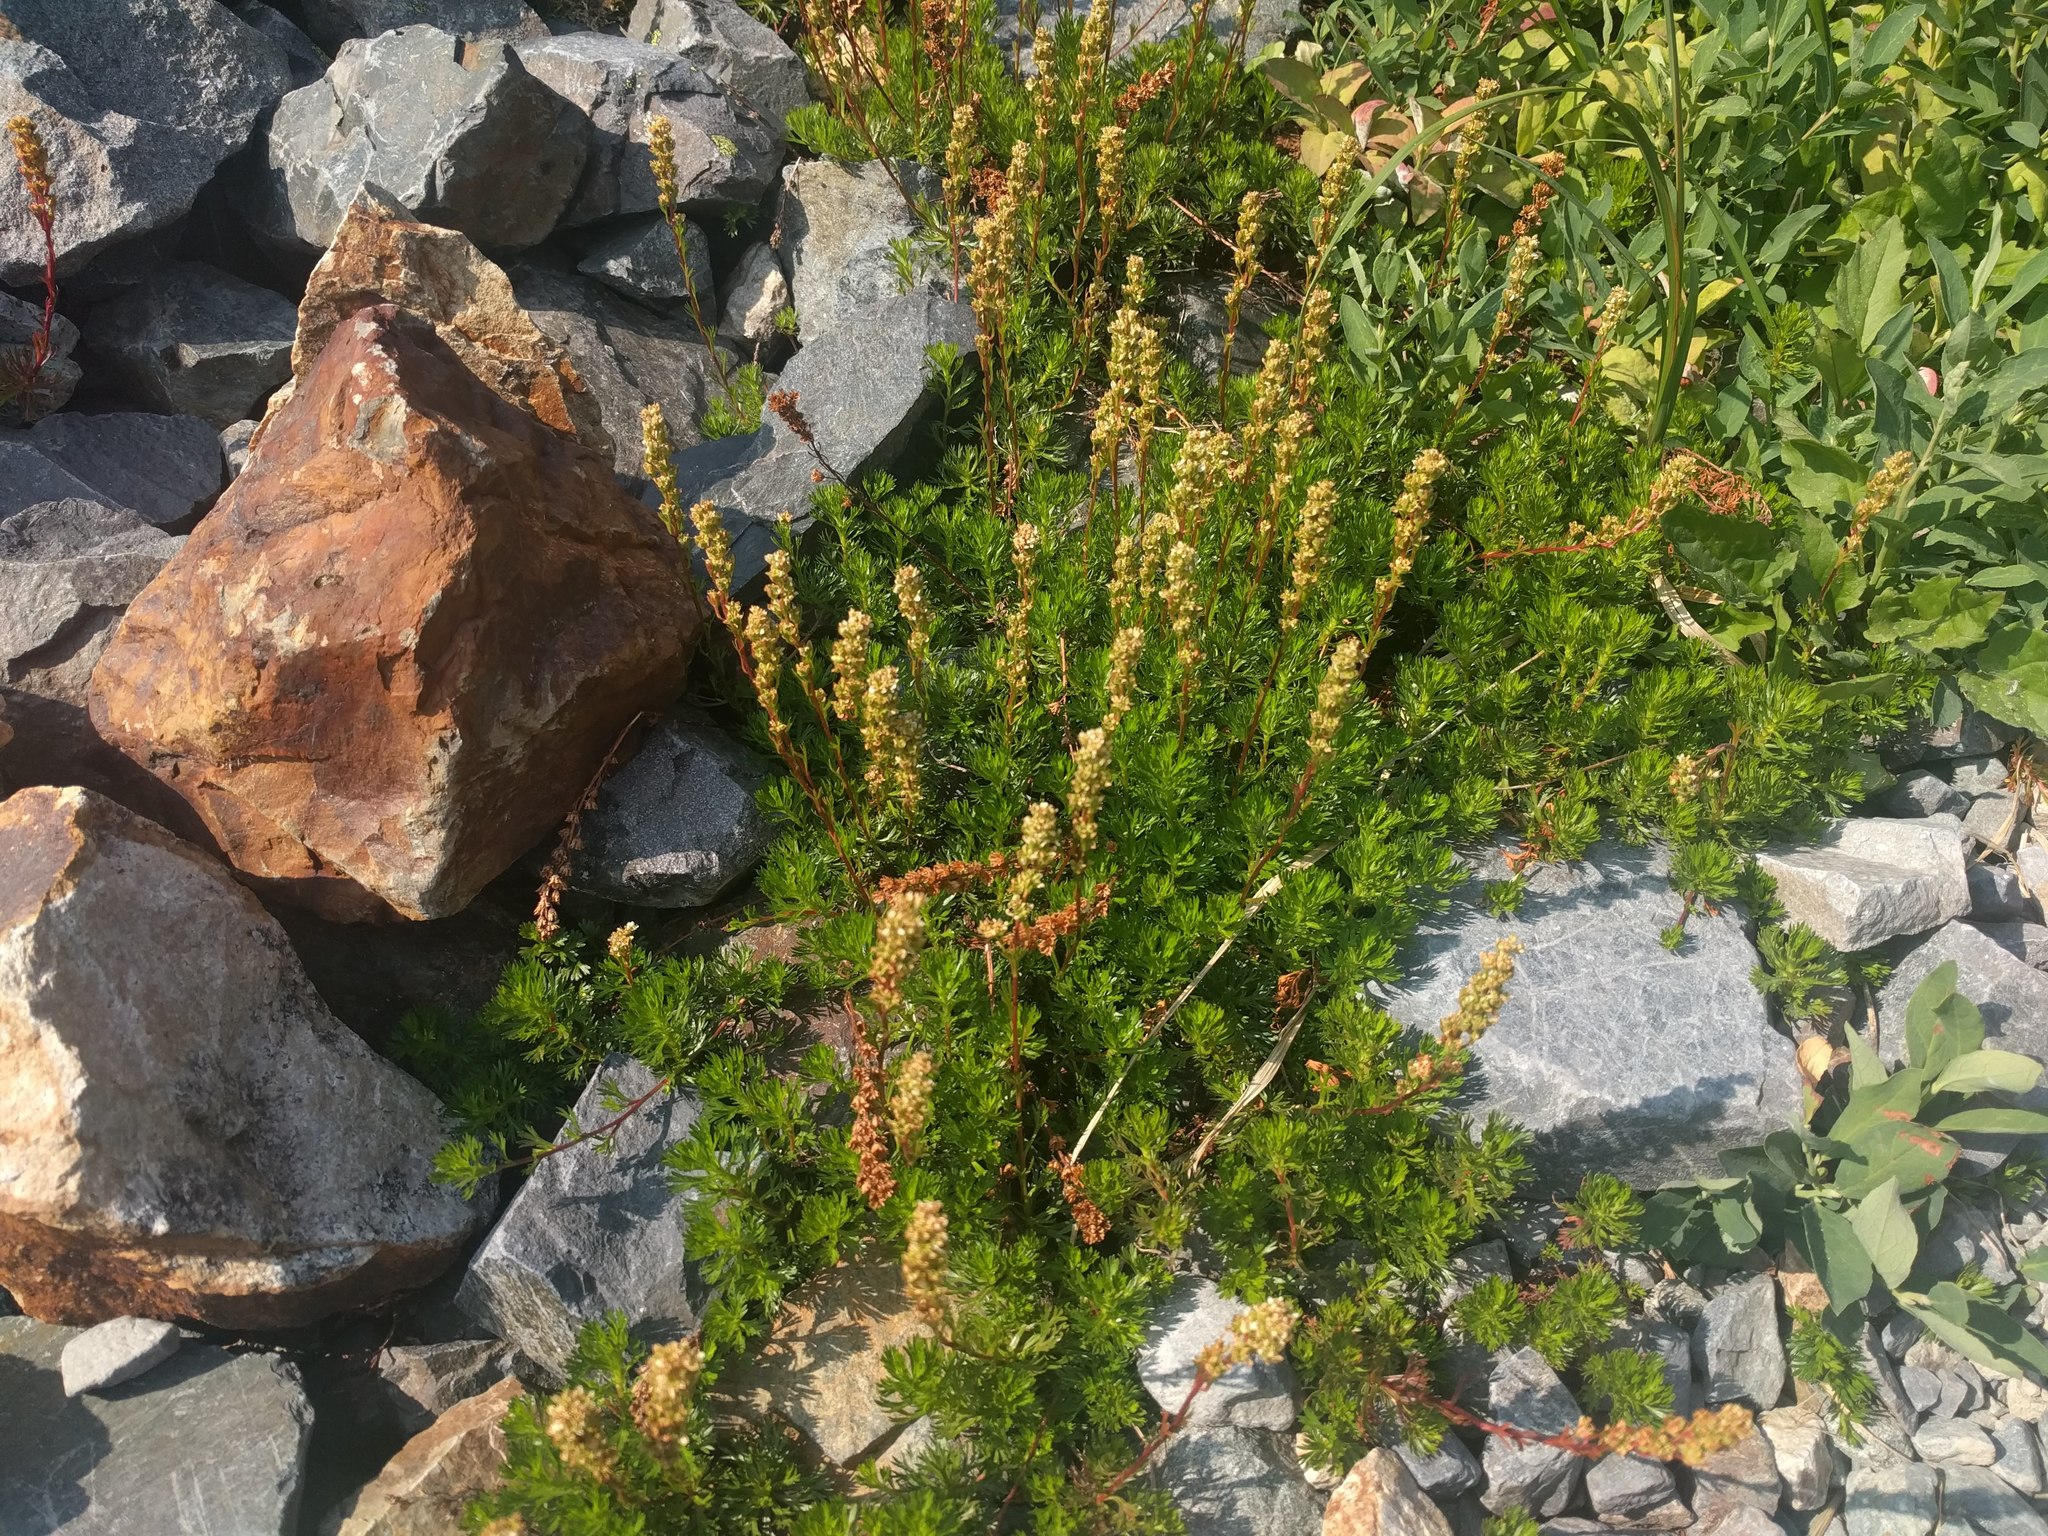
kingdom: Plantae
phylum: Tracheophyta
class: Magnoliopsida
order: Rosales
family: Rosaceae
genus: Luetkea
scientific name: Luetkea pectinata
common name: Partridgefoot
